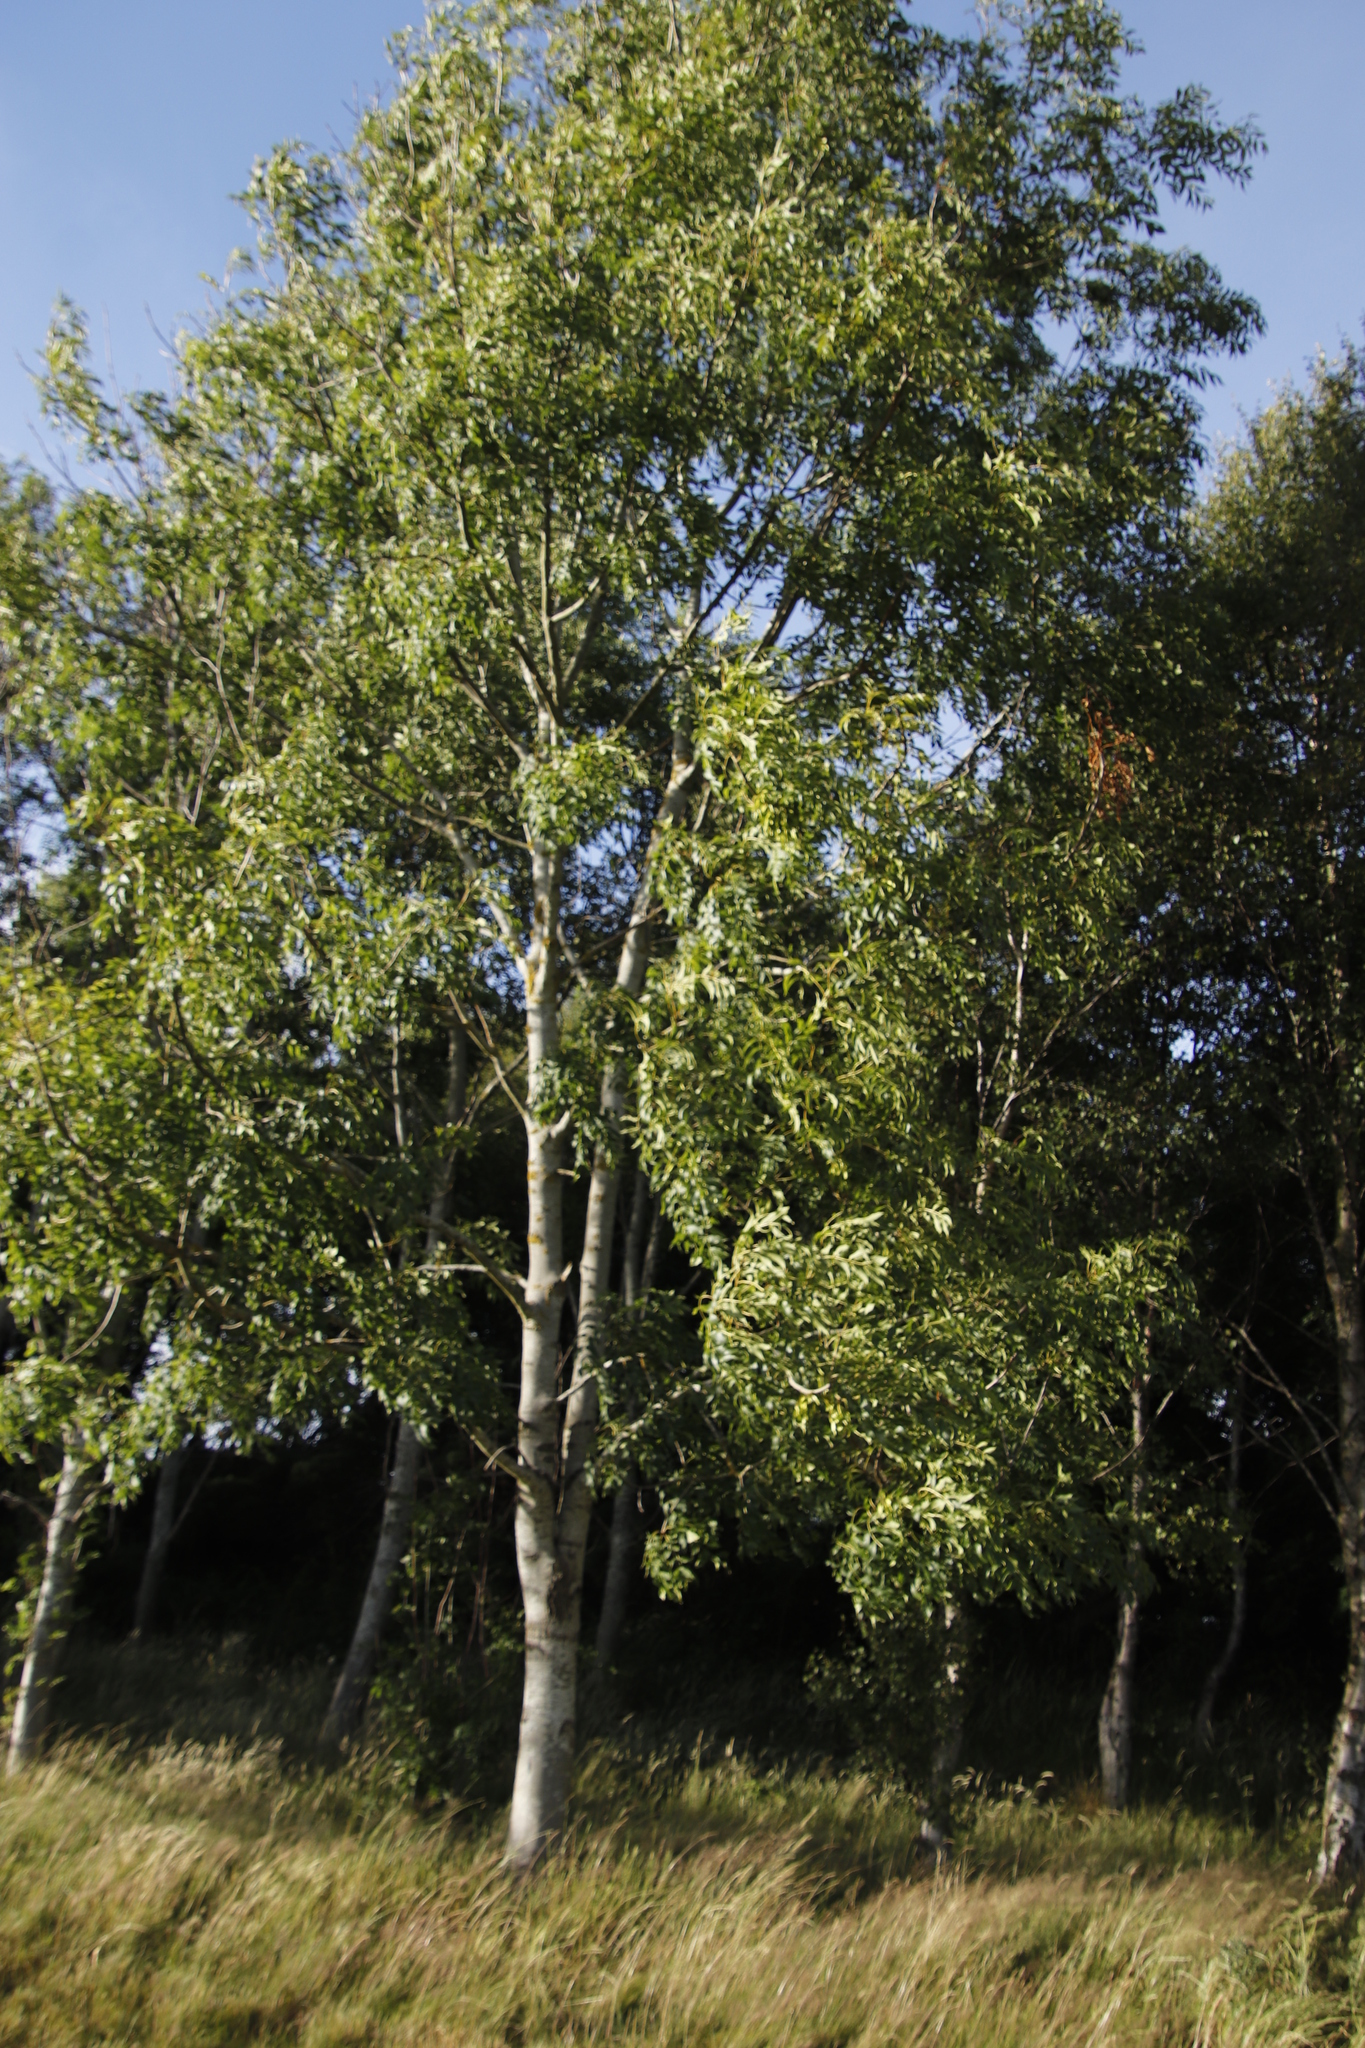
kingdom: Plantae
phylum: Tracheophyta
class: Magnoliopsida
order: Lamiales
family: Oleaceae
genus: Fraxinus
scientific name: Fraxinus excelsior
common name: European ash
